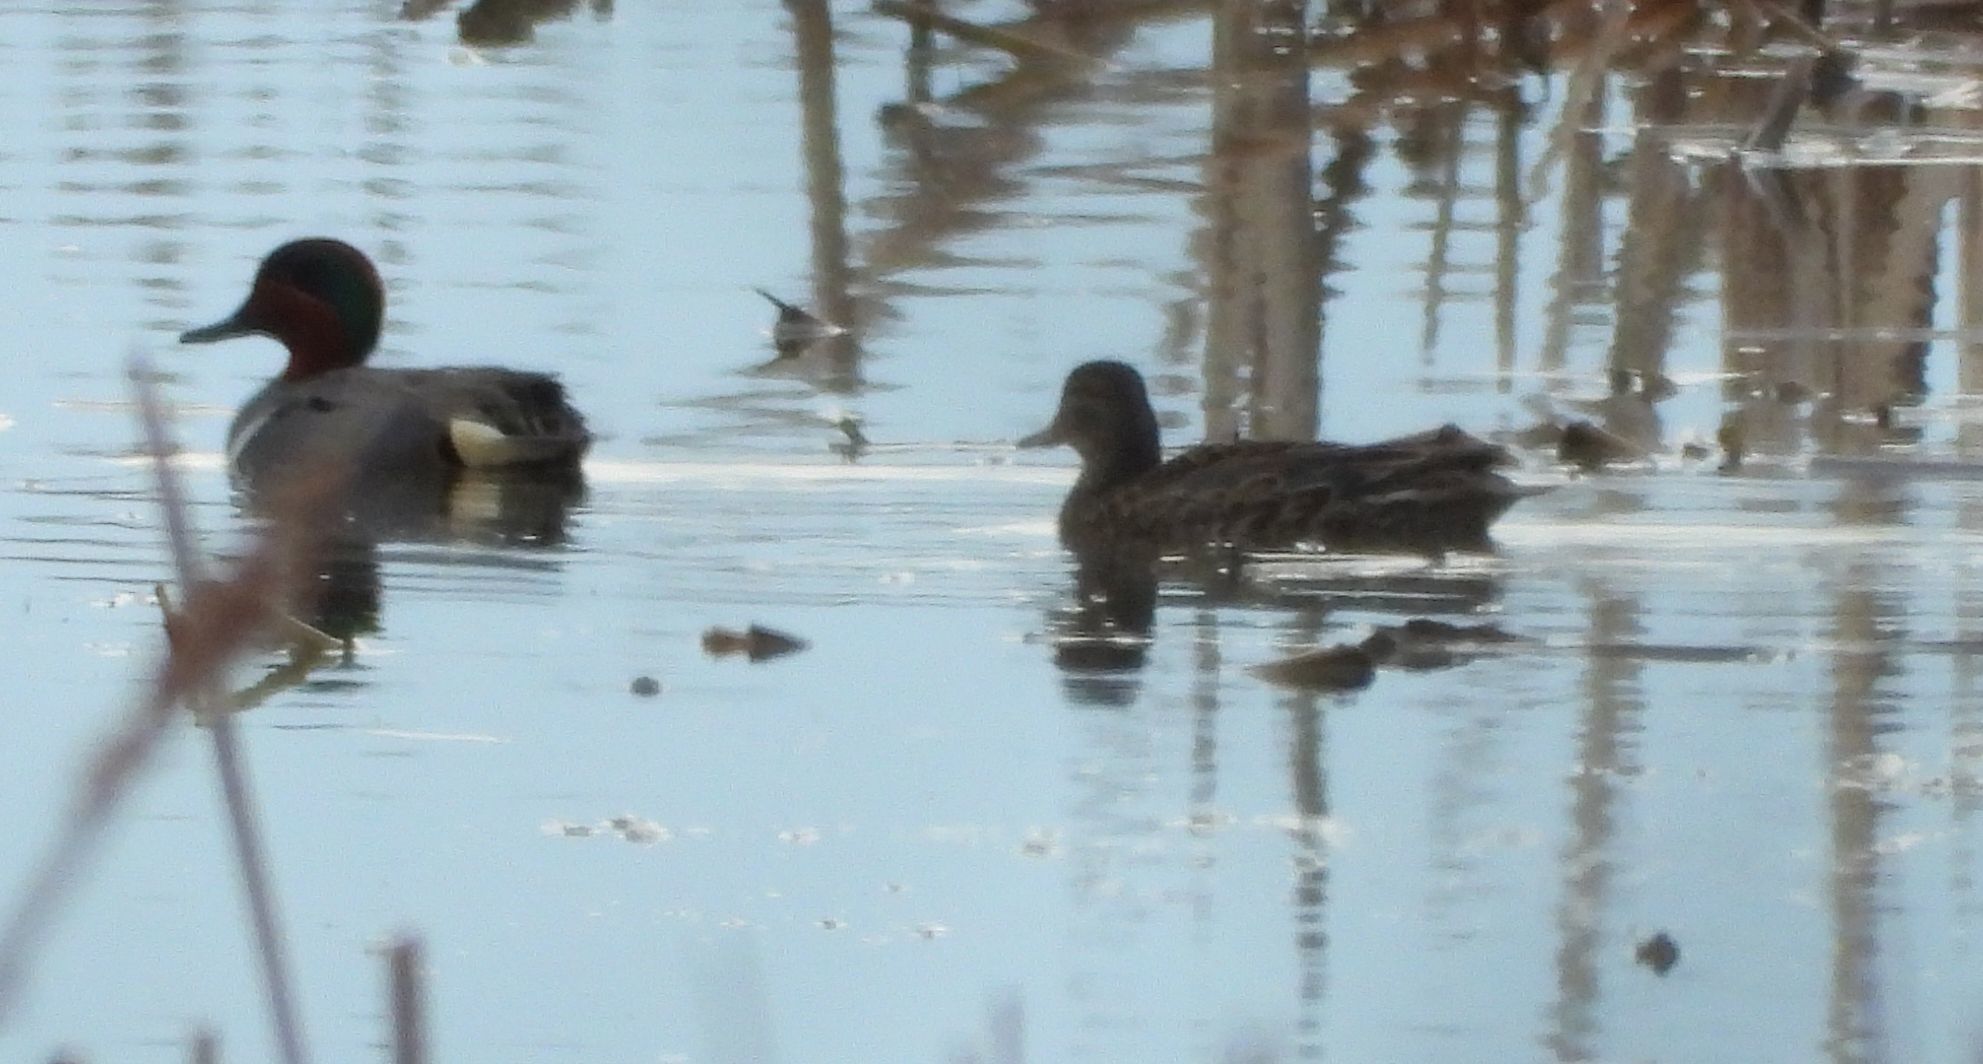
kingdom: Animalia
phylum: Chordata
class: Aves
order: Anseriformes
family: Anatidae
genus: Anas
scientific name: Anas crecca
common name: Eurasian teal
